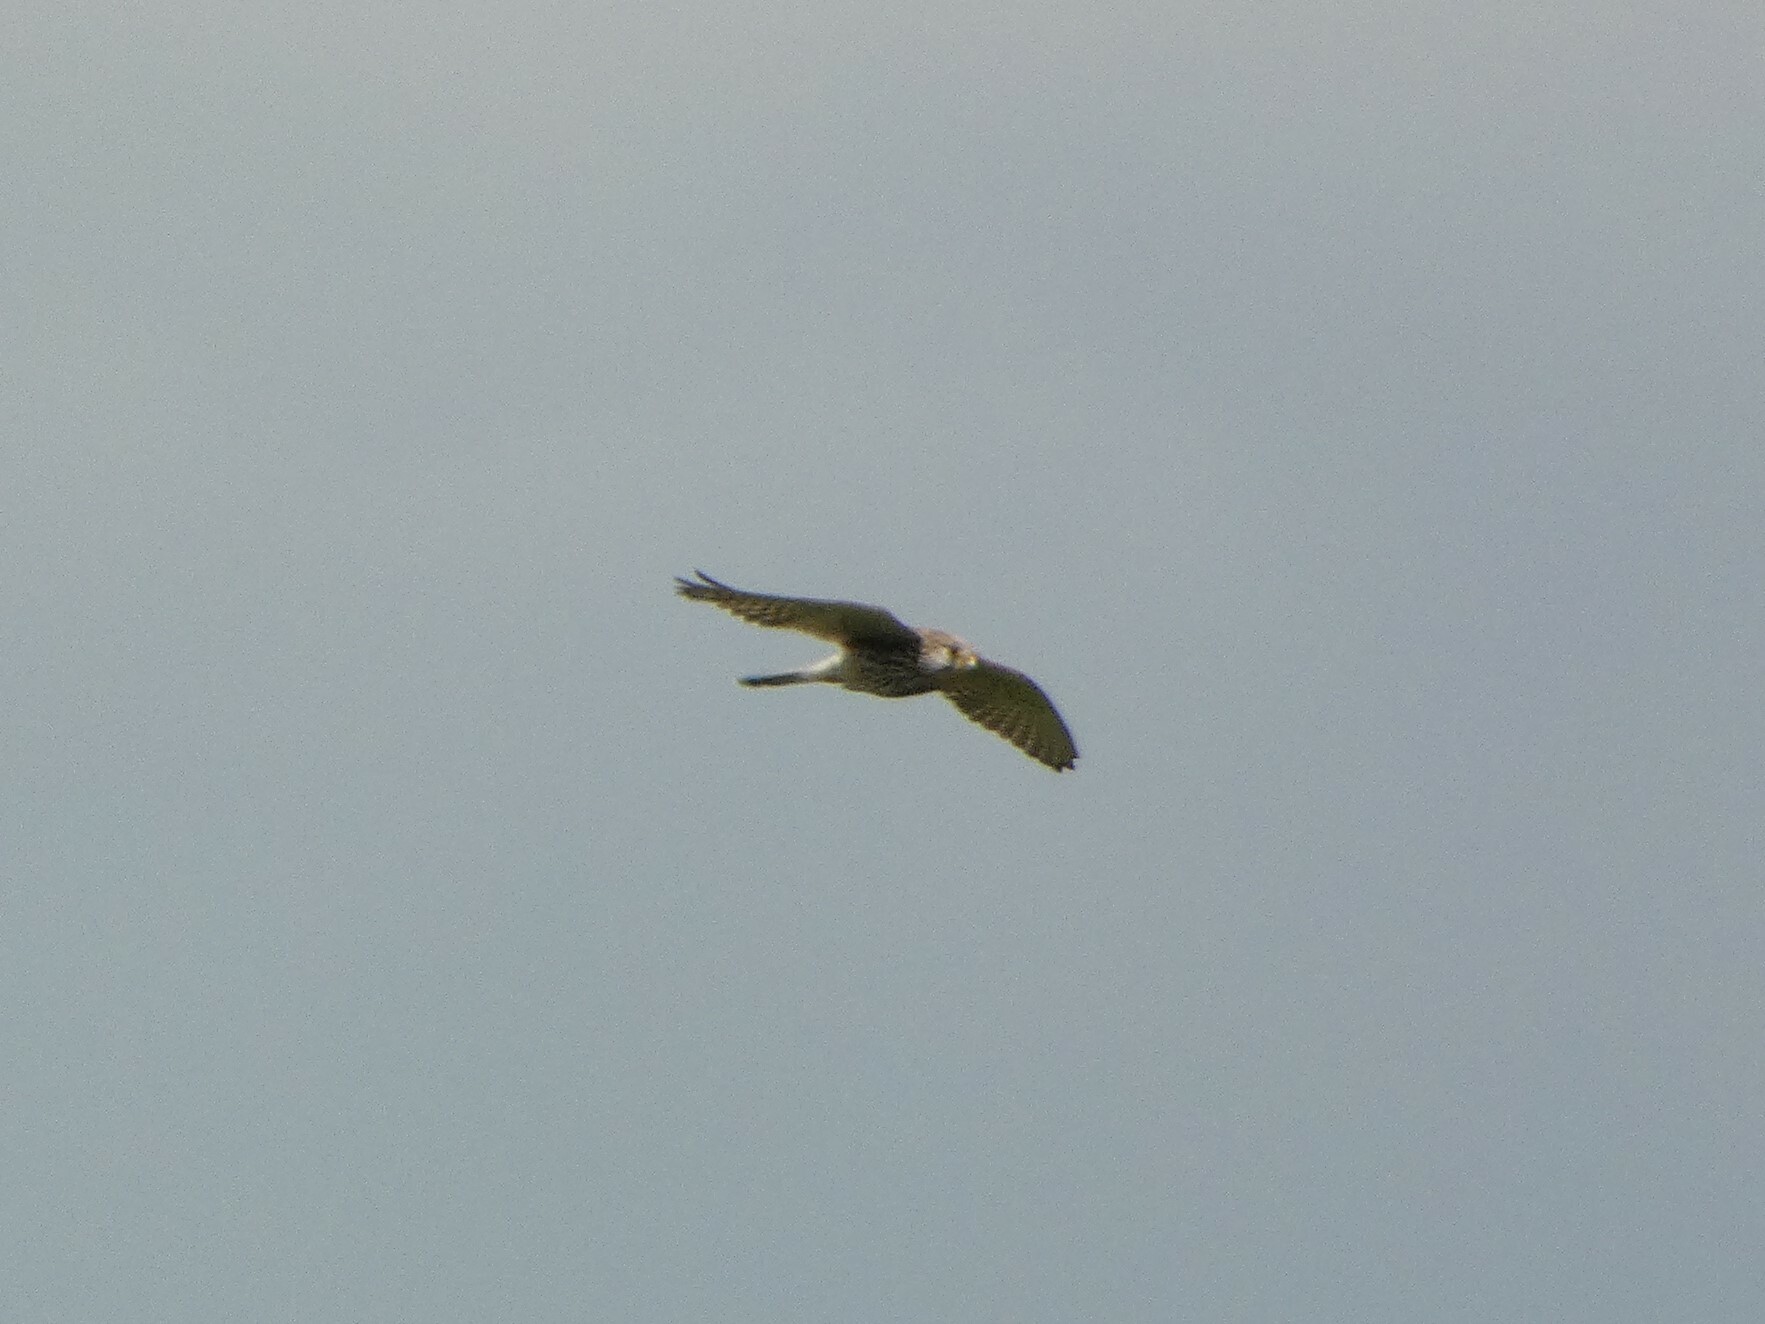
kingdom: Animalia
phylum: Chordata
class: Aves
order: Falconiformes
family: Falconidae
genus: Falco
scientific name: Falco tinnunculus
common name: Common kestrel
